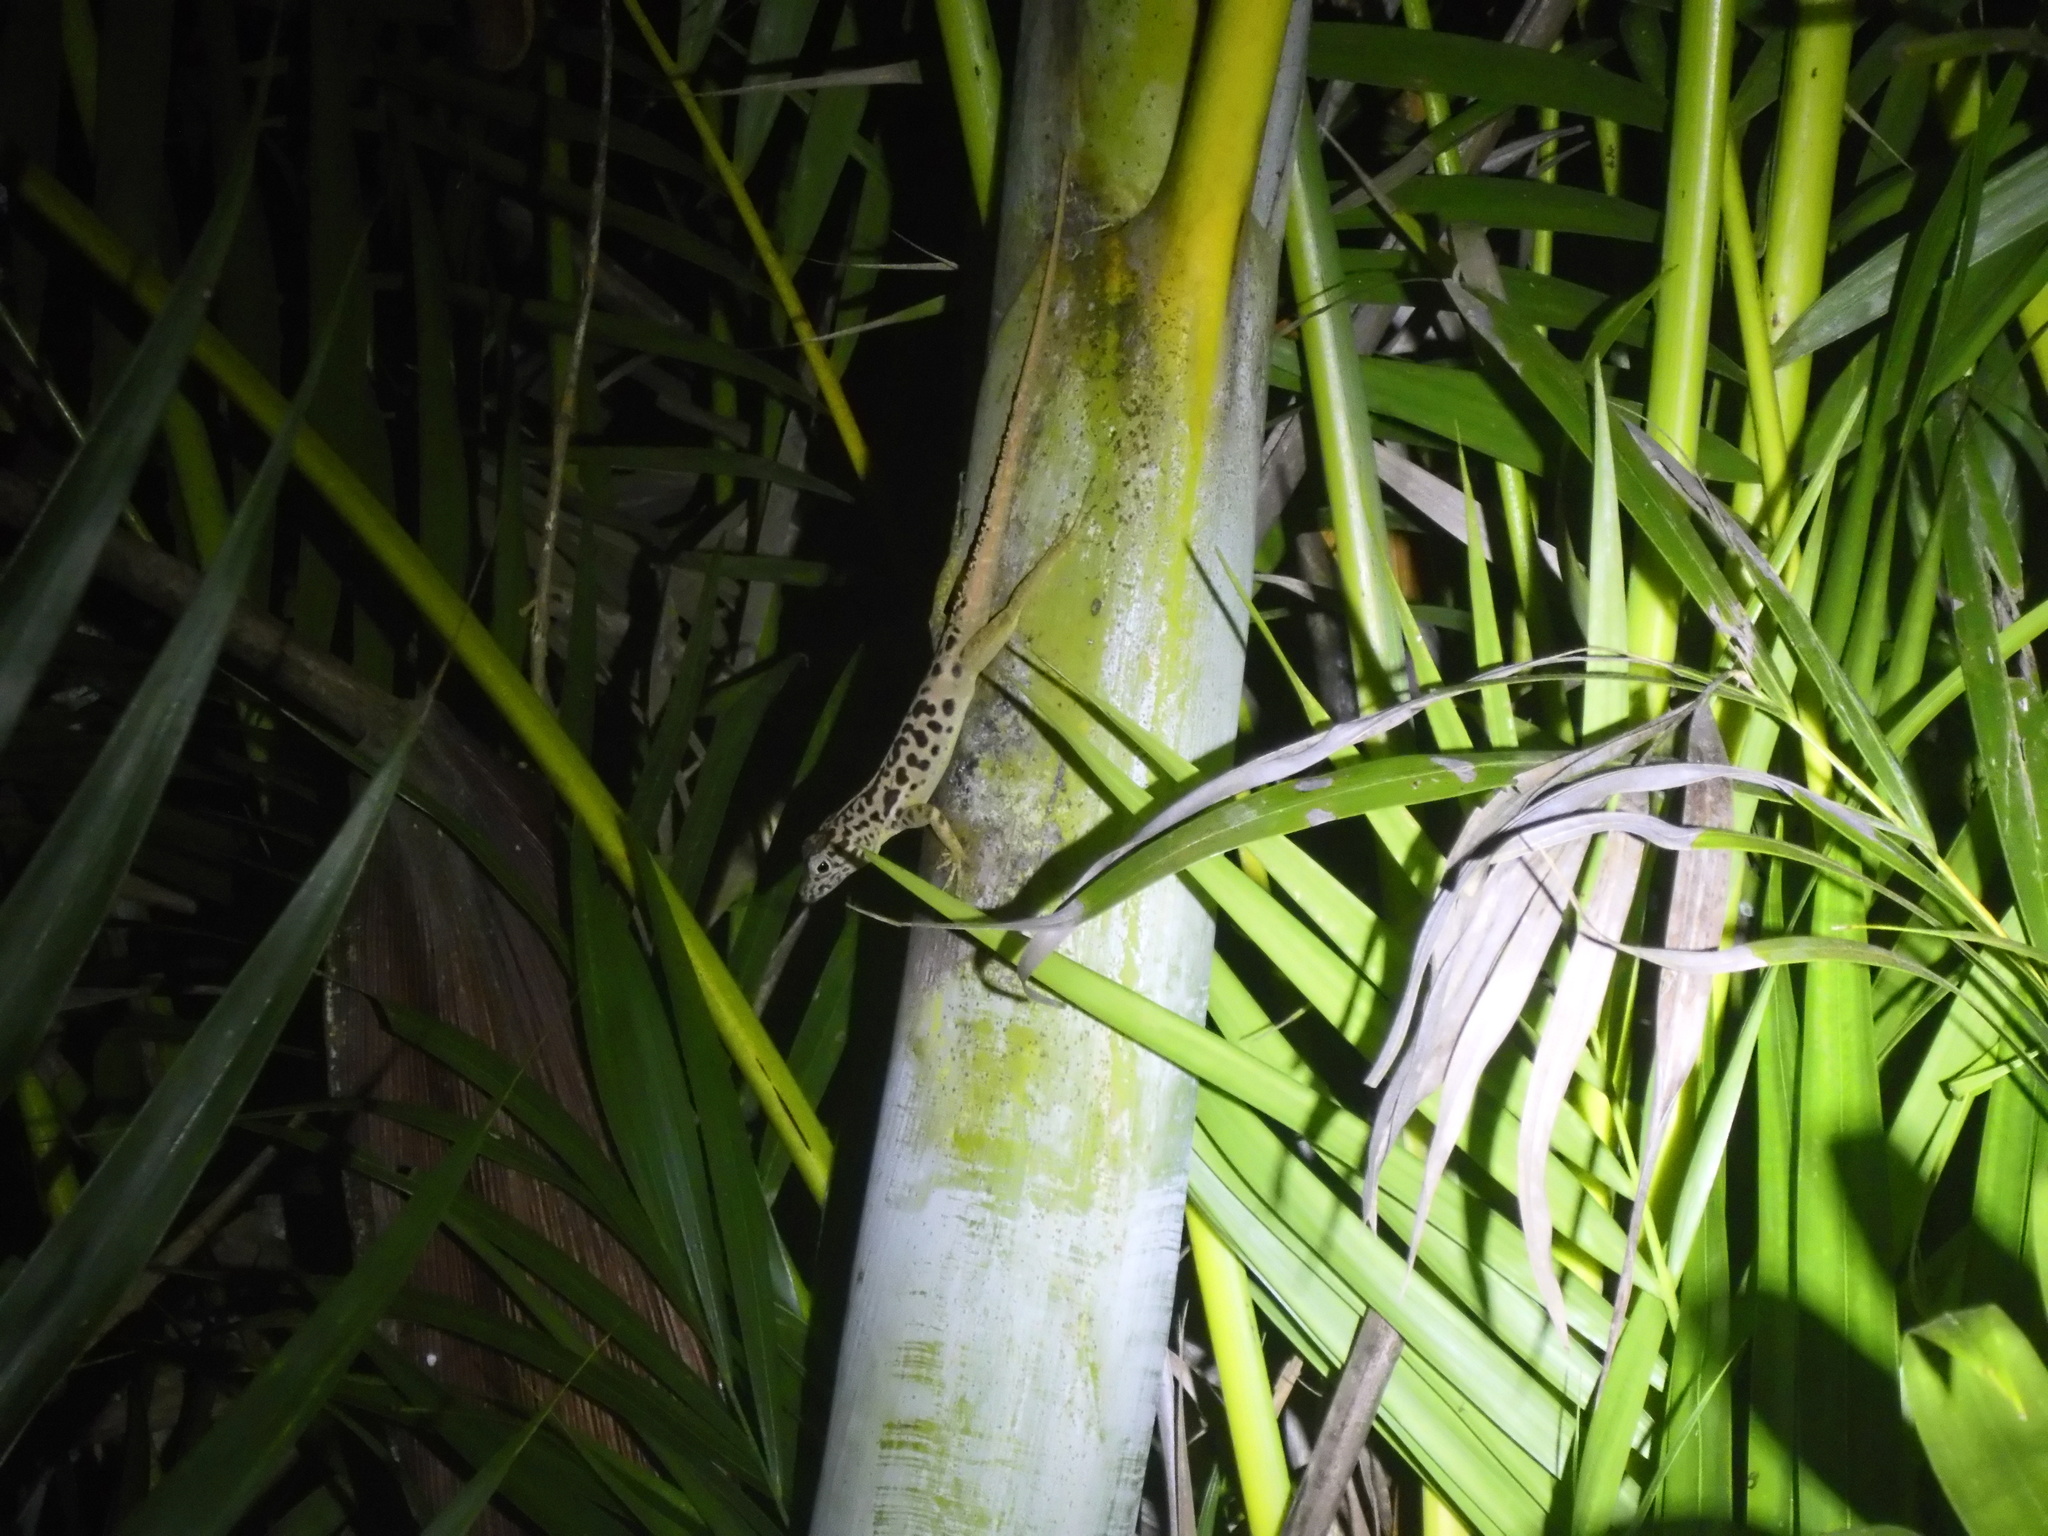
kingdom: Animalia
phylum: Chordata
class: Squamata
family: Dactyloidae
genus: Anolis
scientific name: Anolis sabanus
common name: Saba anole
